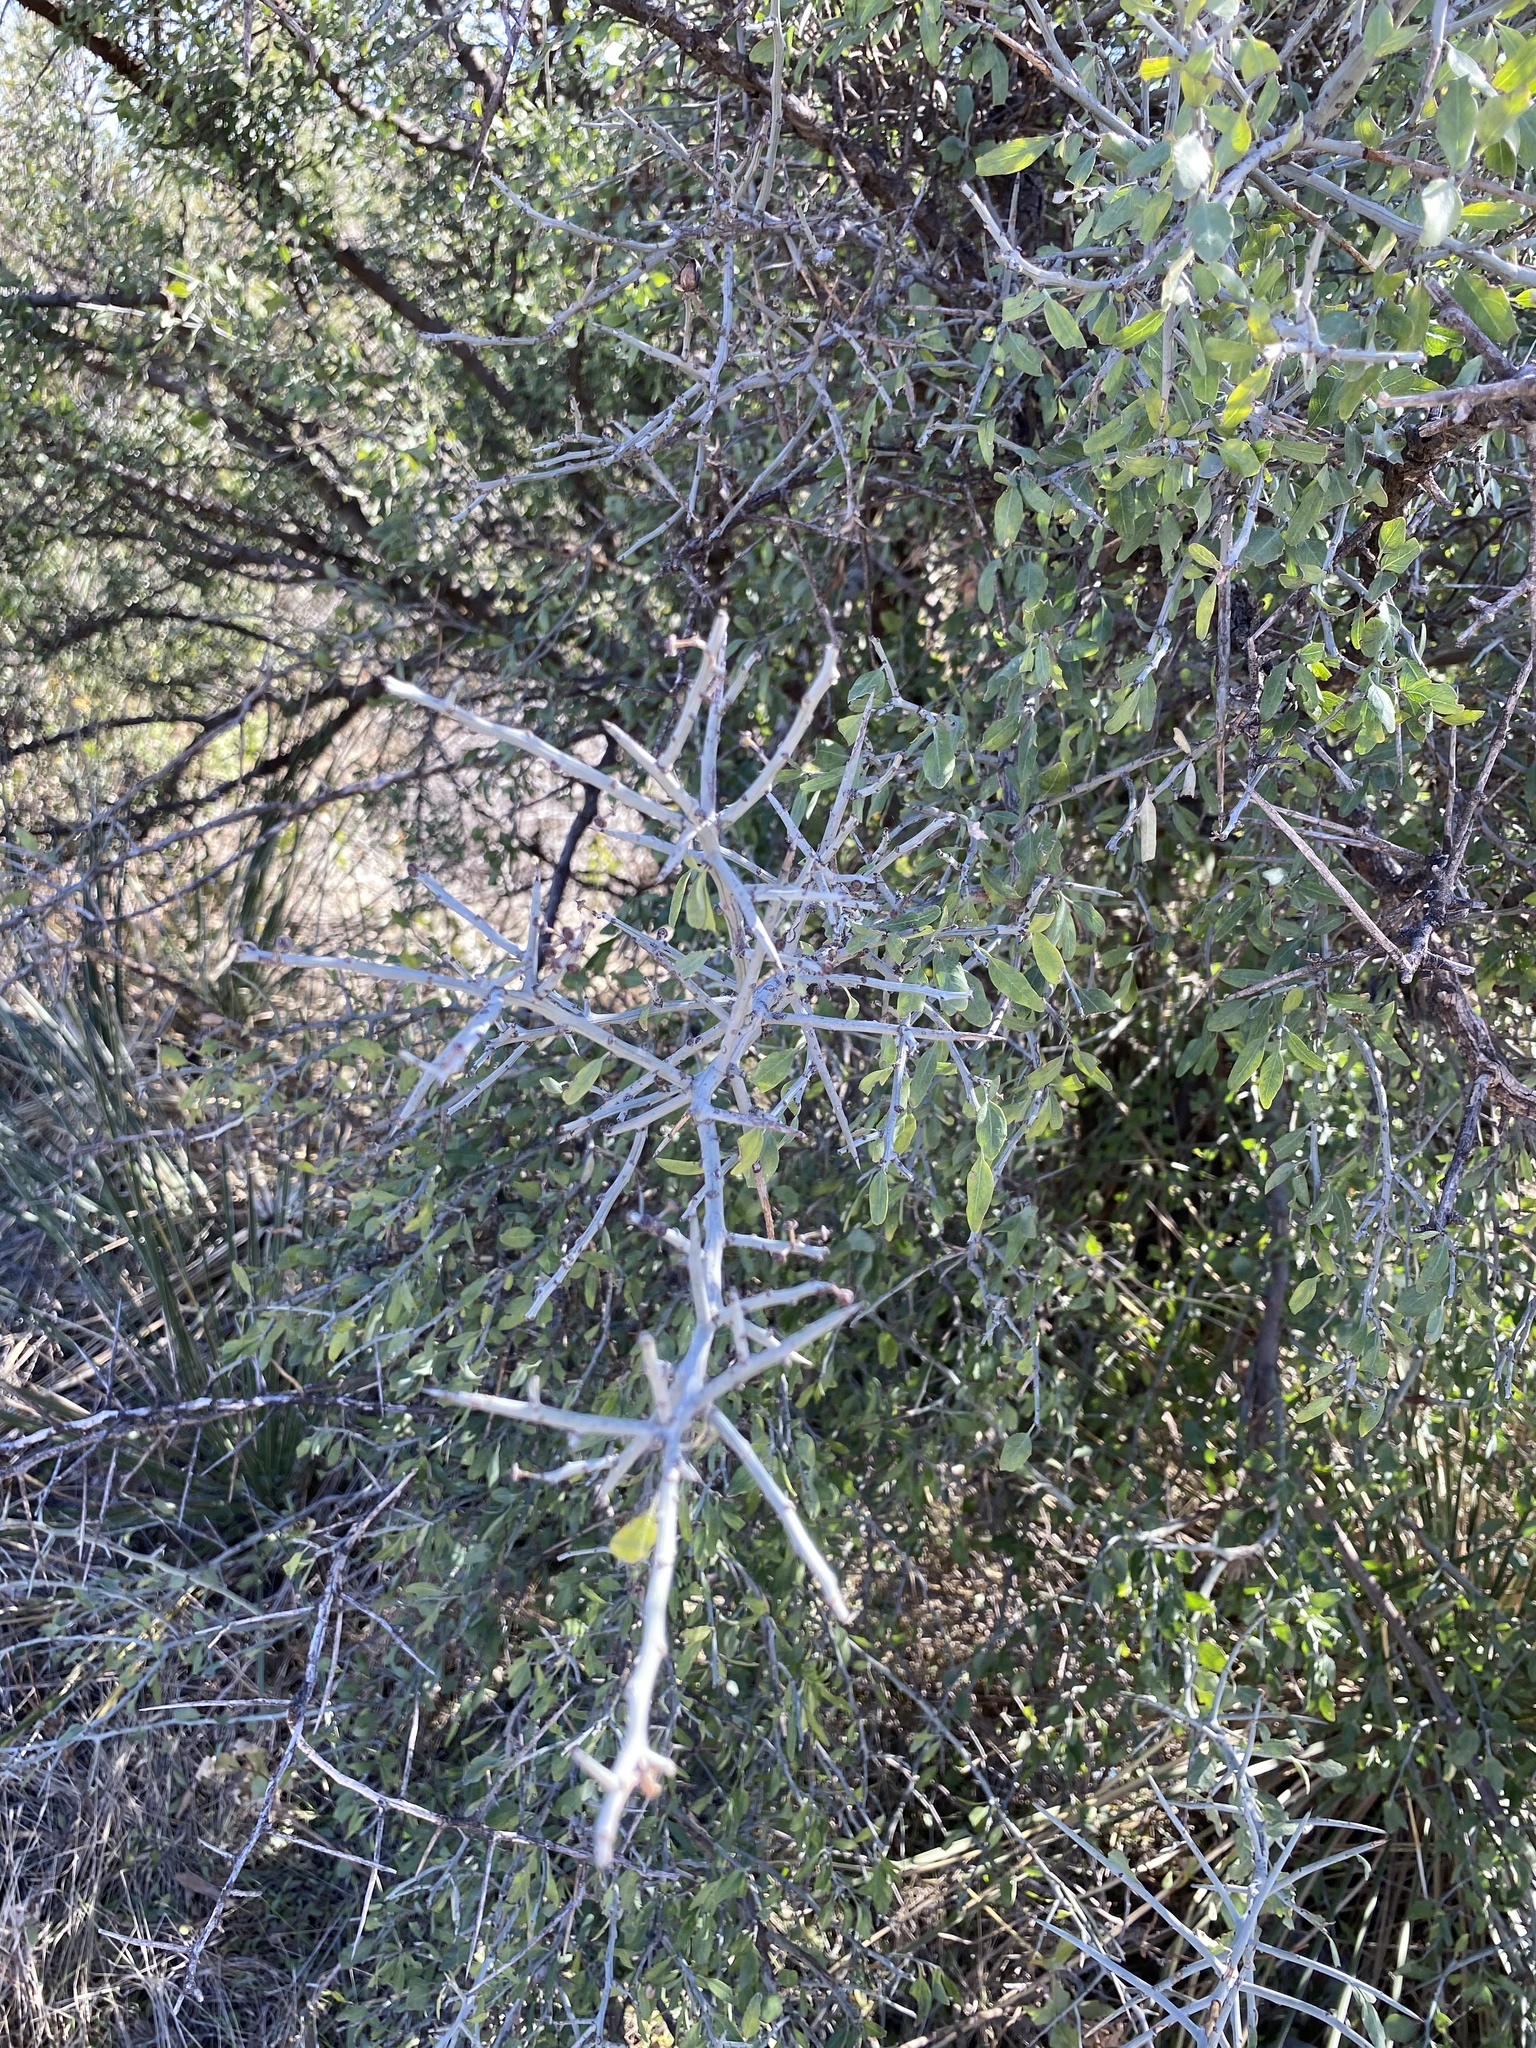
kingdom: Plantae
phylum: Tracheophyta
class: Magnoliopsida
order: Rosales
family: Rhamnaceae
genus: Sarcomphalus
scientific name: Sarcomphalus obtusifolius
